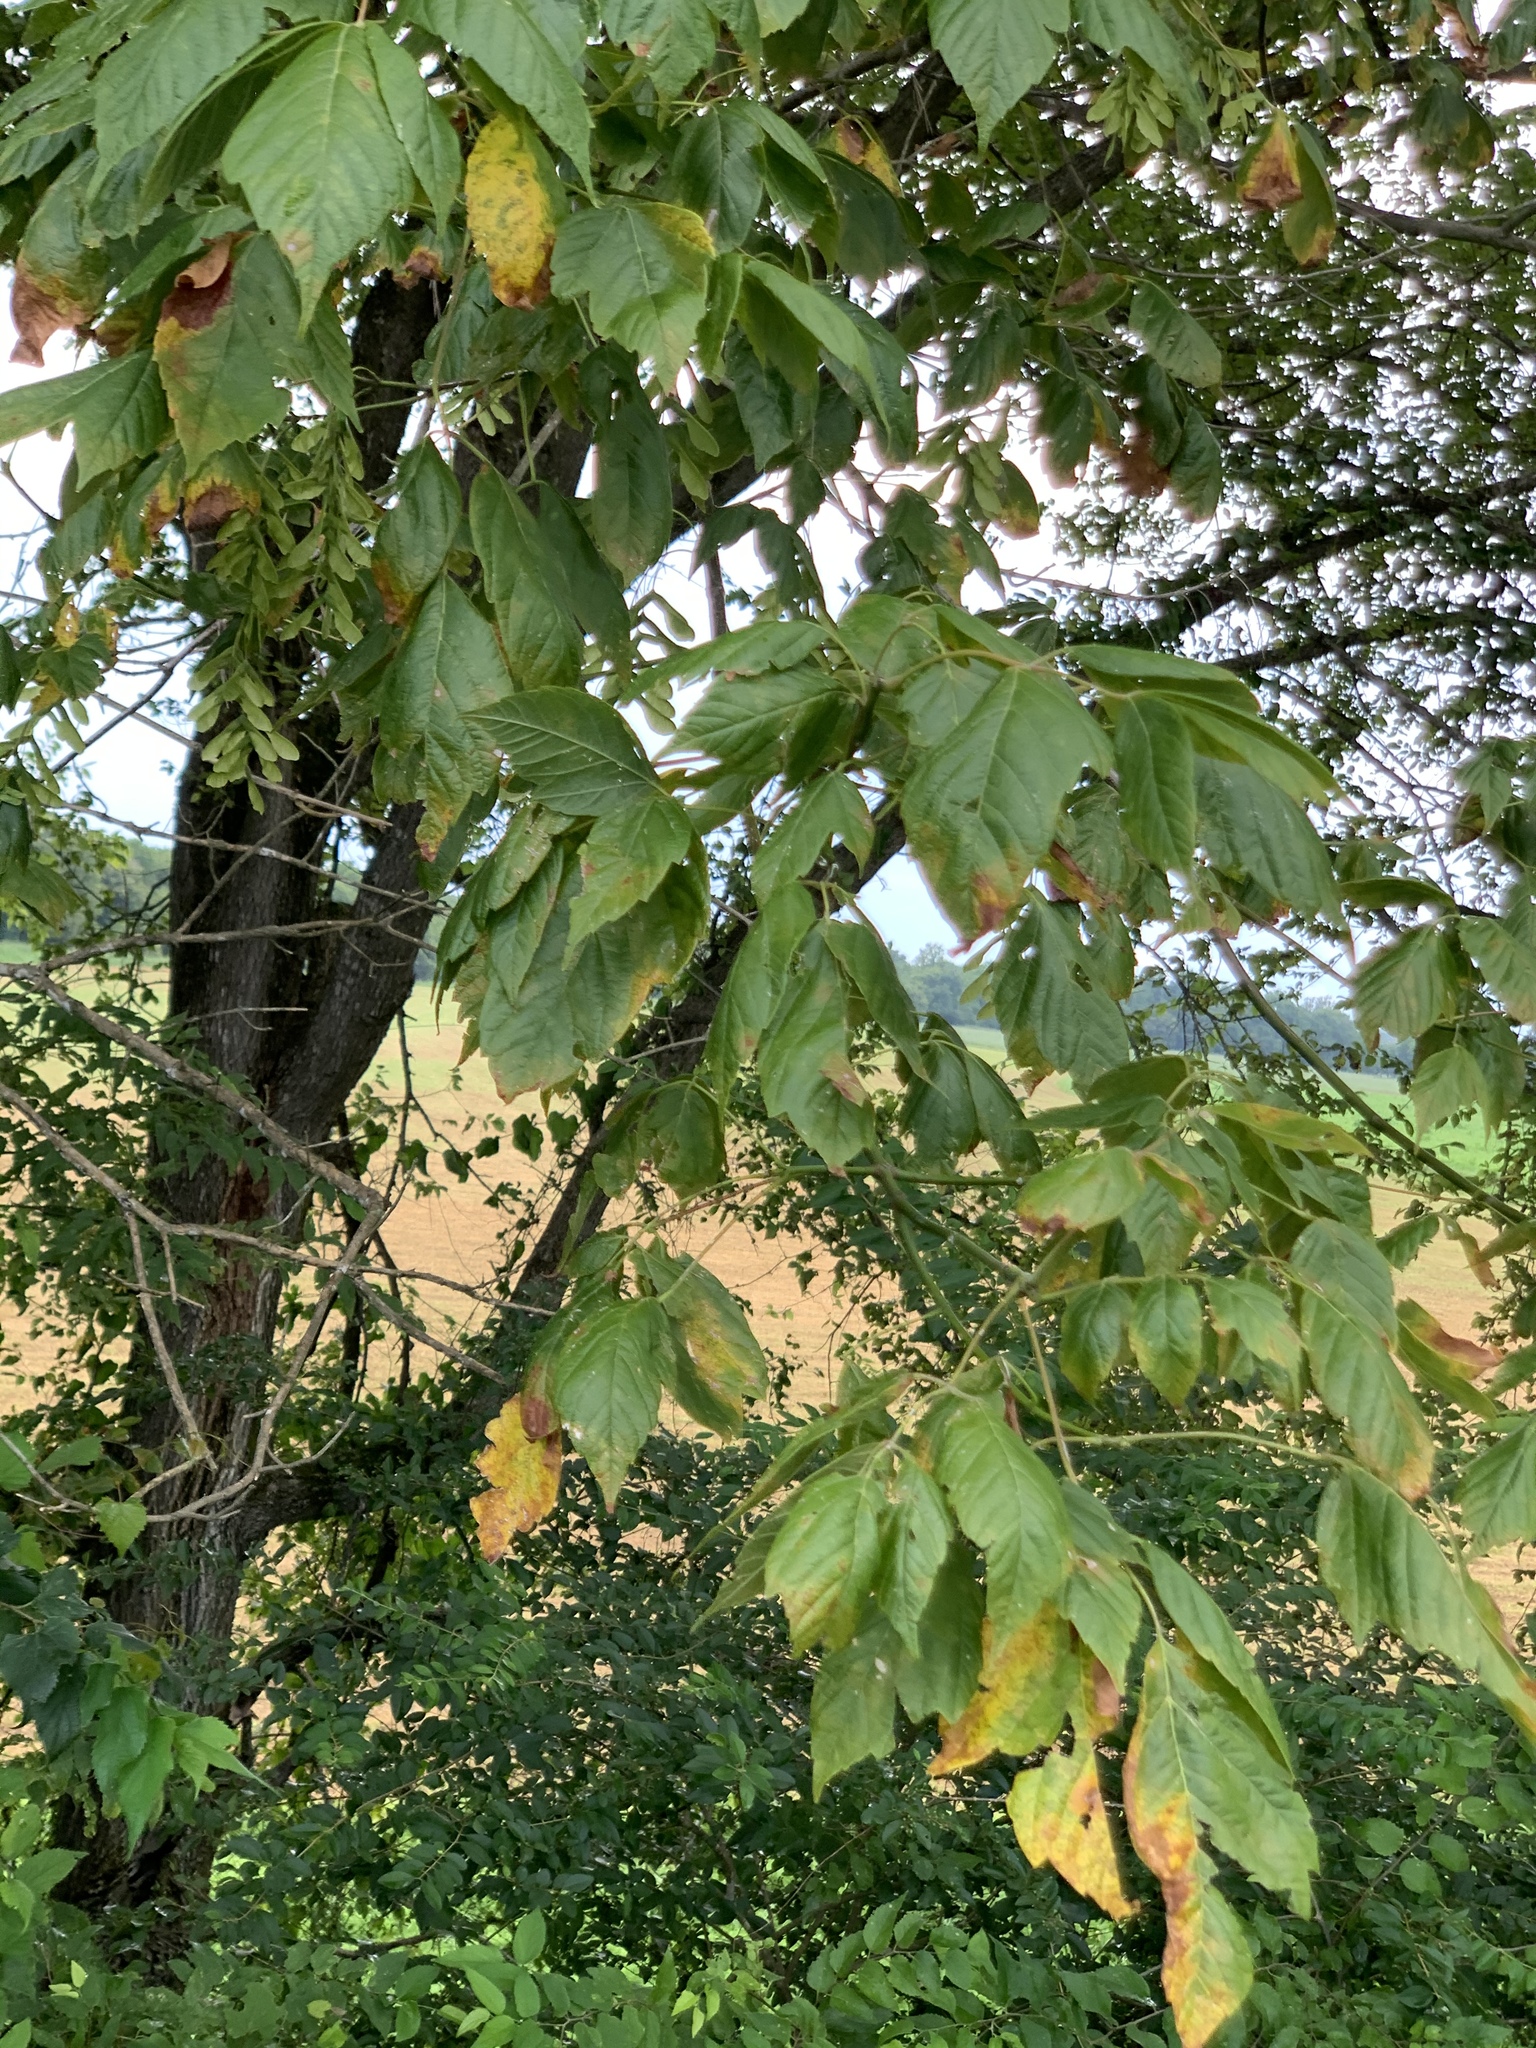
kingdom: Plantae
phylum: Tracheophyta
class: Magnoliopsida
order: Sapindales
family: Sapindaceae
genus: Acer
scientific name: Acer negundo
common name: Ashleaf maple
